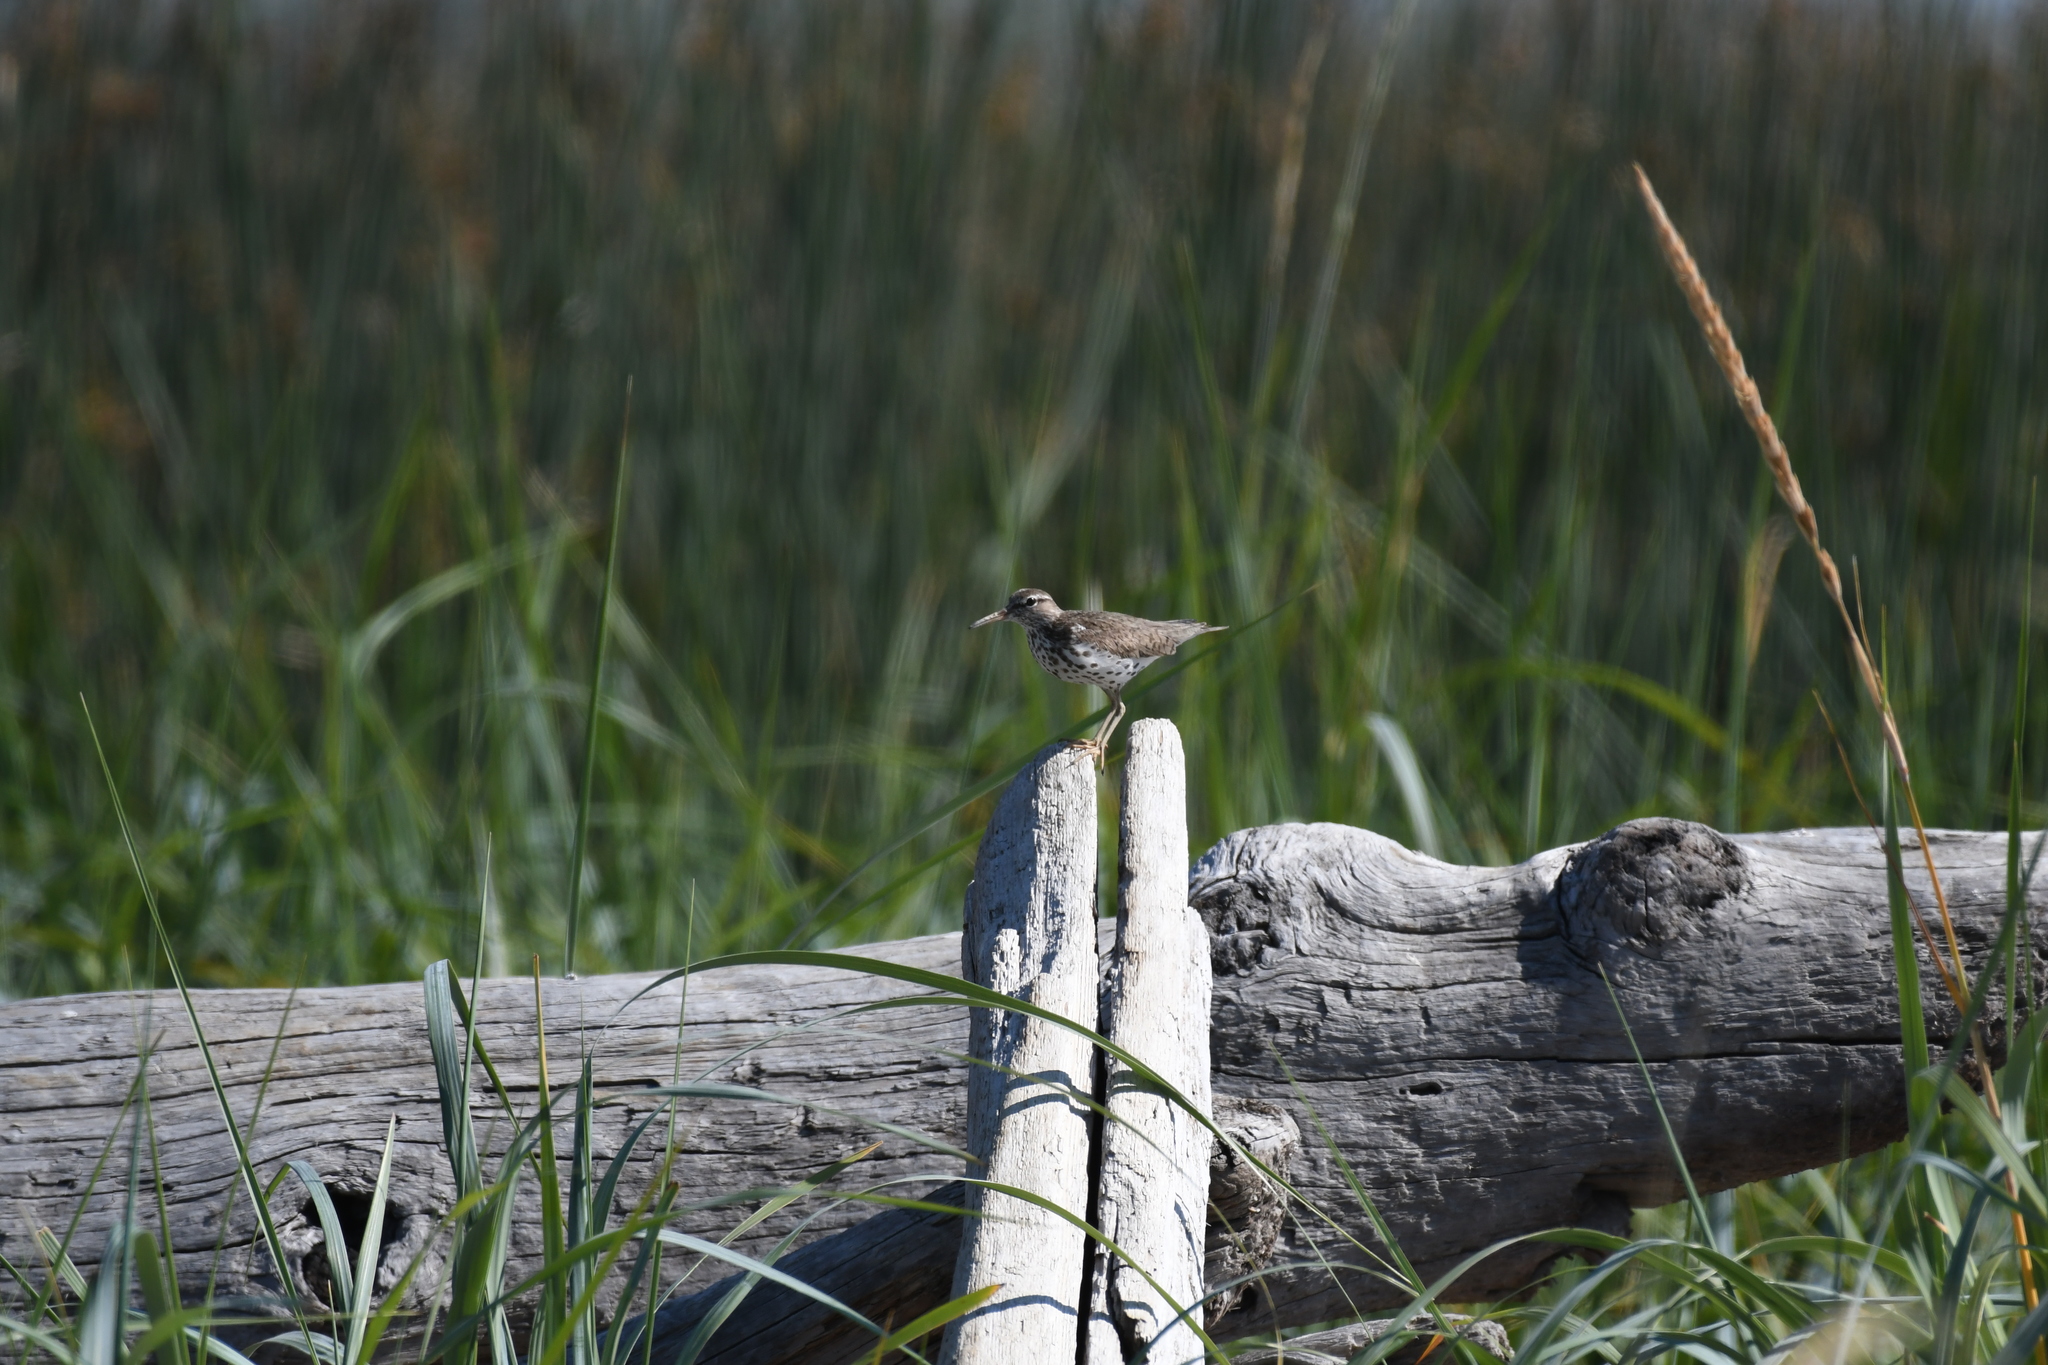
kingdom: Animalia
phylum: Chordata
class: Aves
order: Charadriiformes
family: Scolopacidae
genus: Actitis
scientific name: Actitis macularius
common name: Spotted sandpiper
